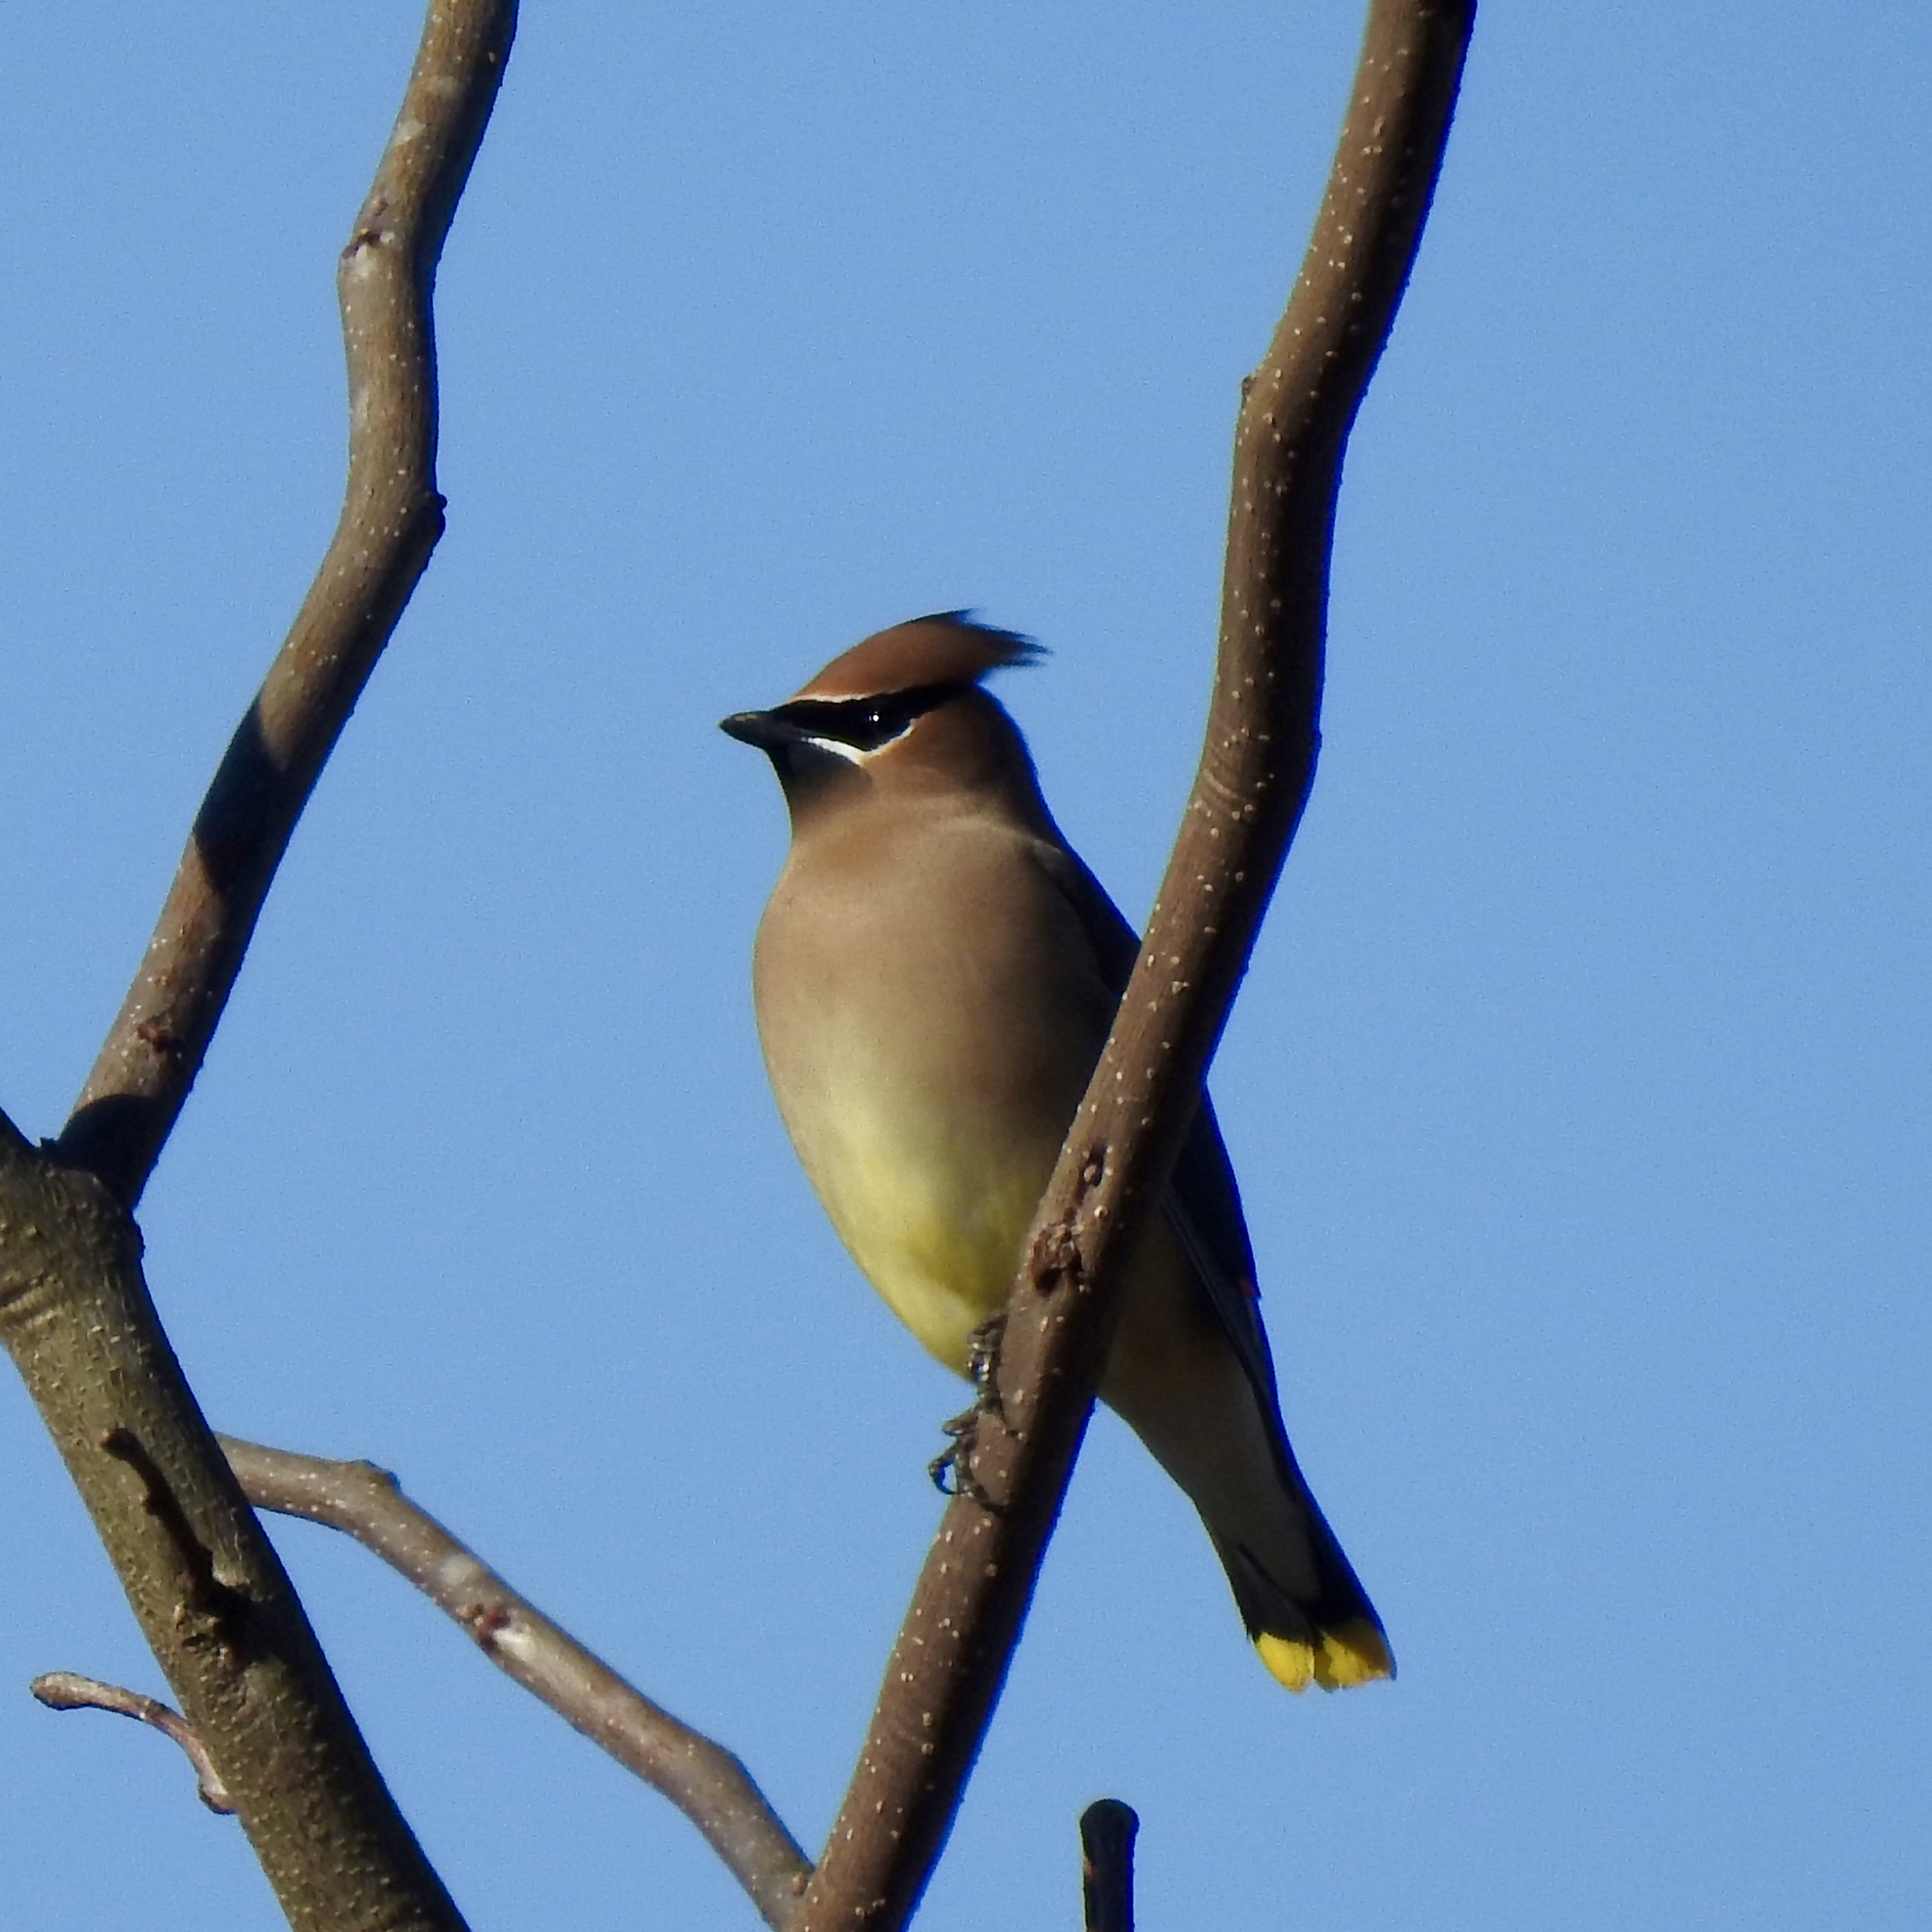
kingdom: Animalia
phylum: Chordata
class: Aves
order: Passeriformes
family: Bombycillidae
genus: Bombycilla
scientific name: Bombycilla cedrorum
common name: Cedar waxwing
